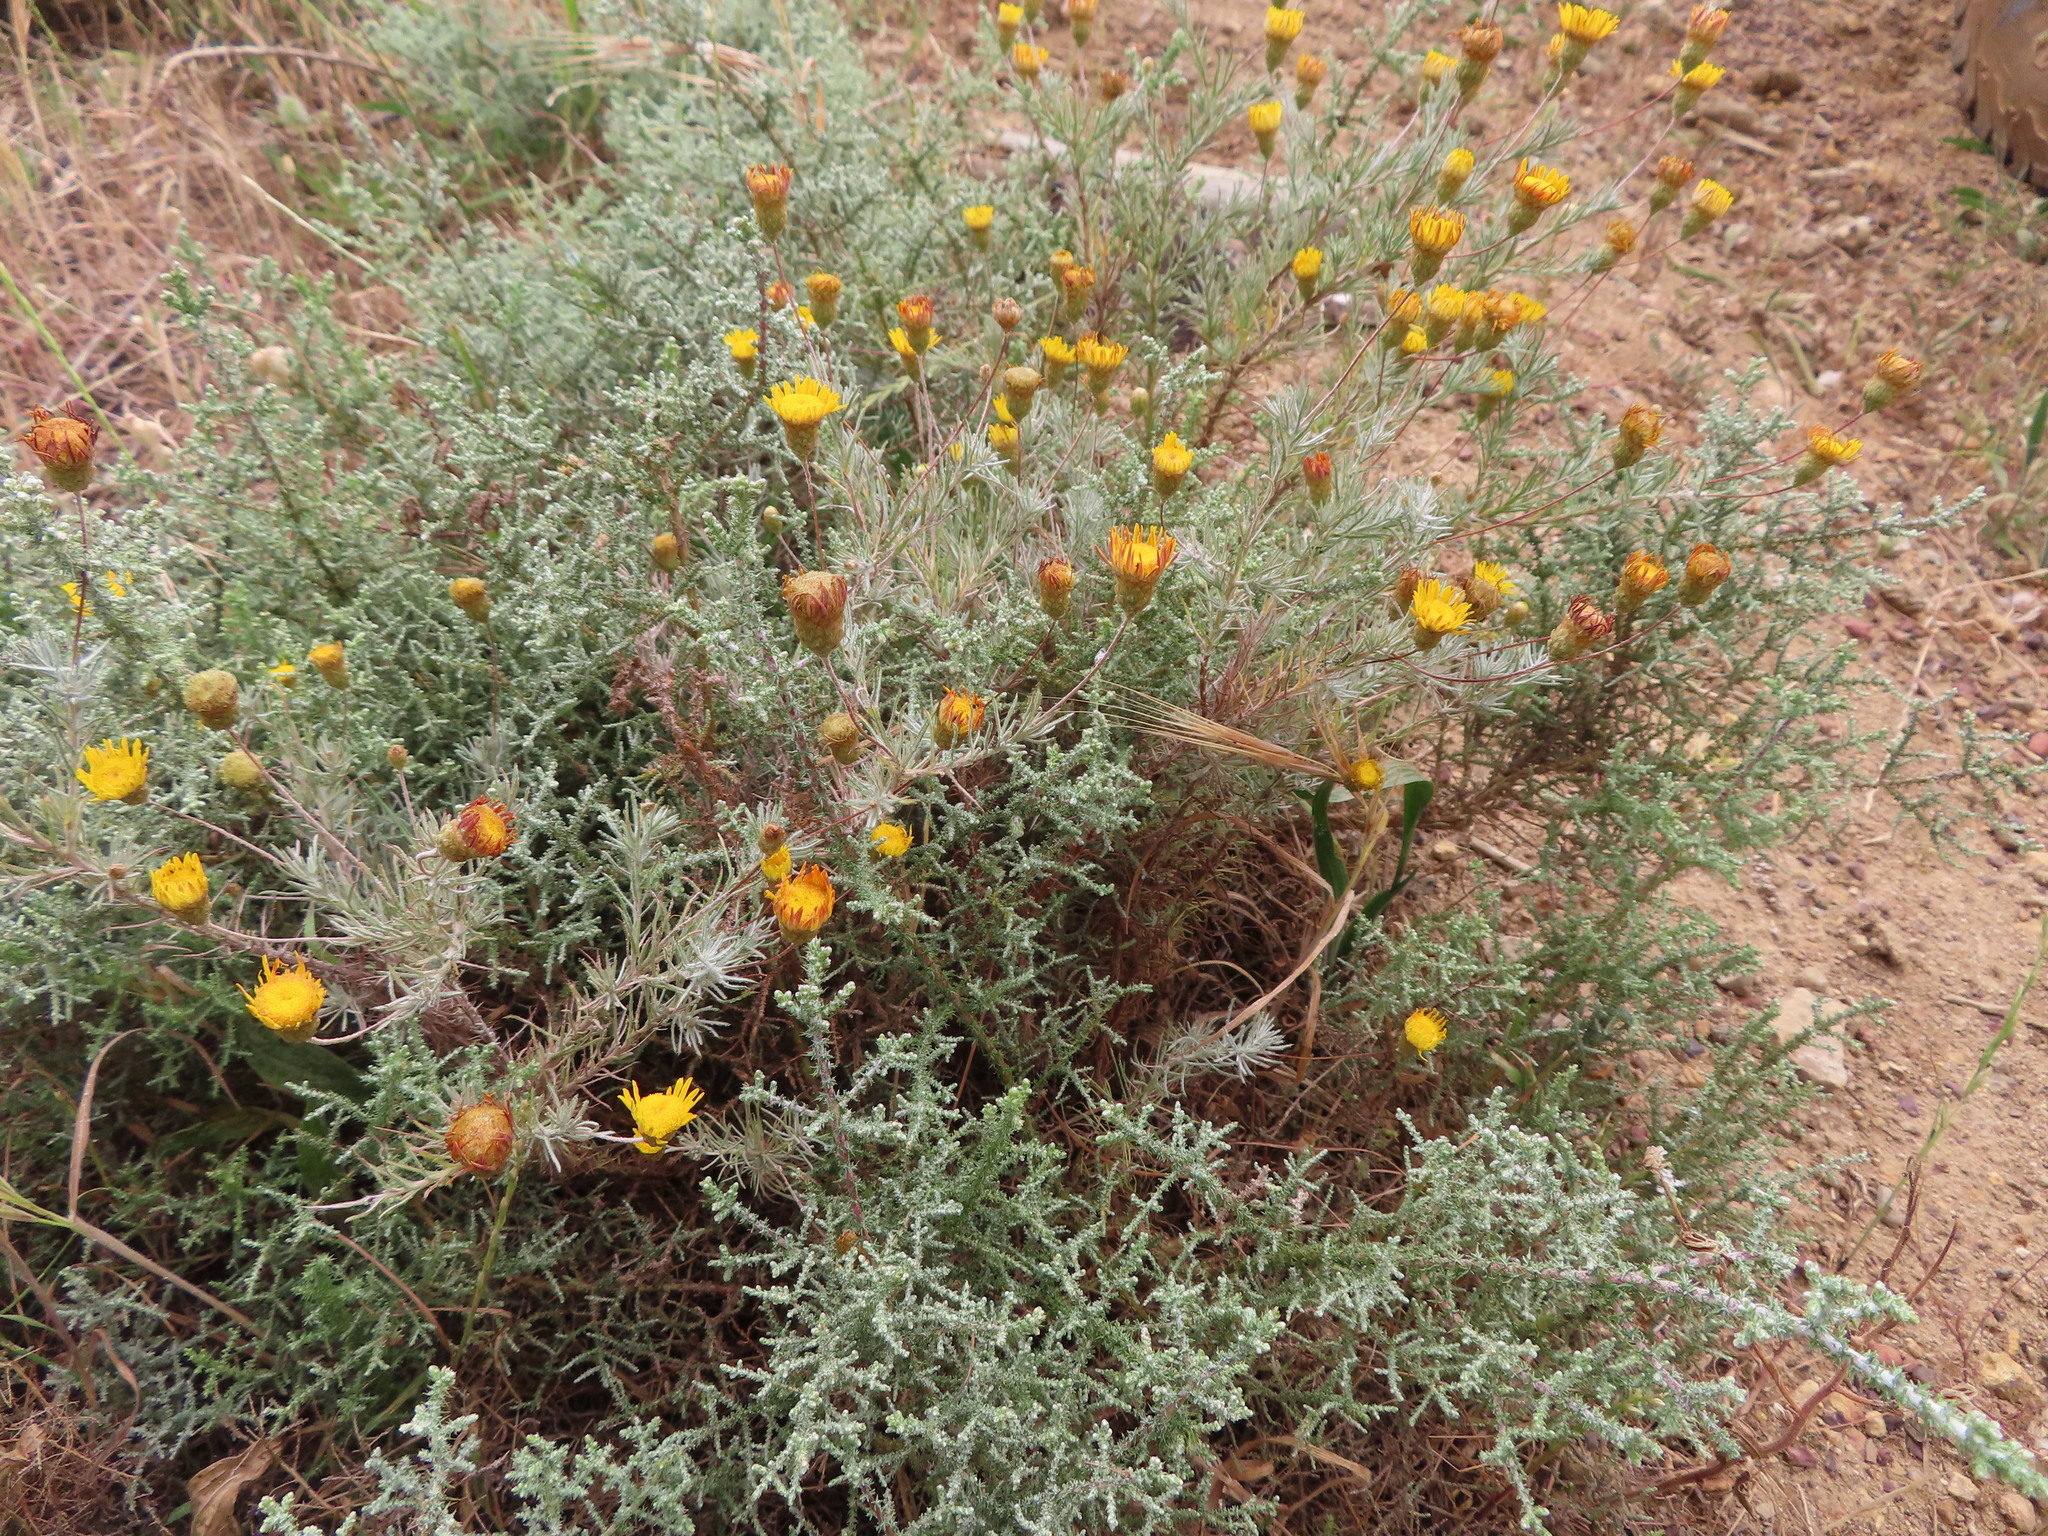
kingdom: Plantae
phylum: Tracheophyta
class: Magnoliopsida
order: Asterales
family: Asteraceae
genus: Leysera
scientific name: Leysera gnaphalodes
